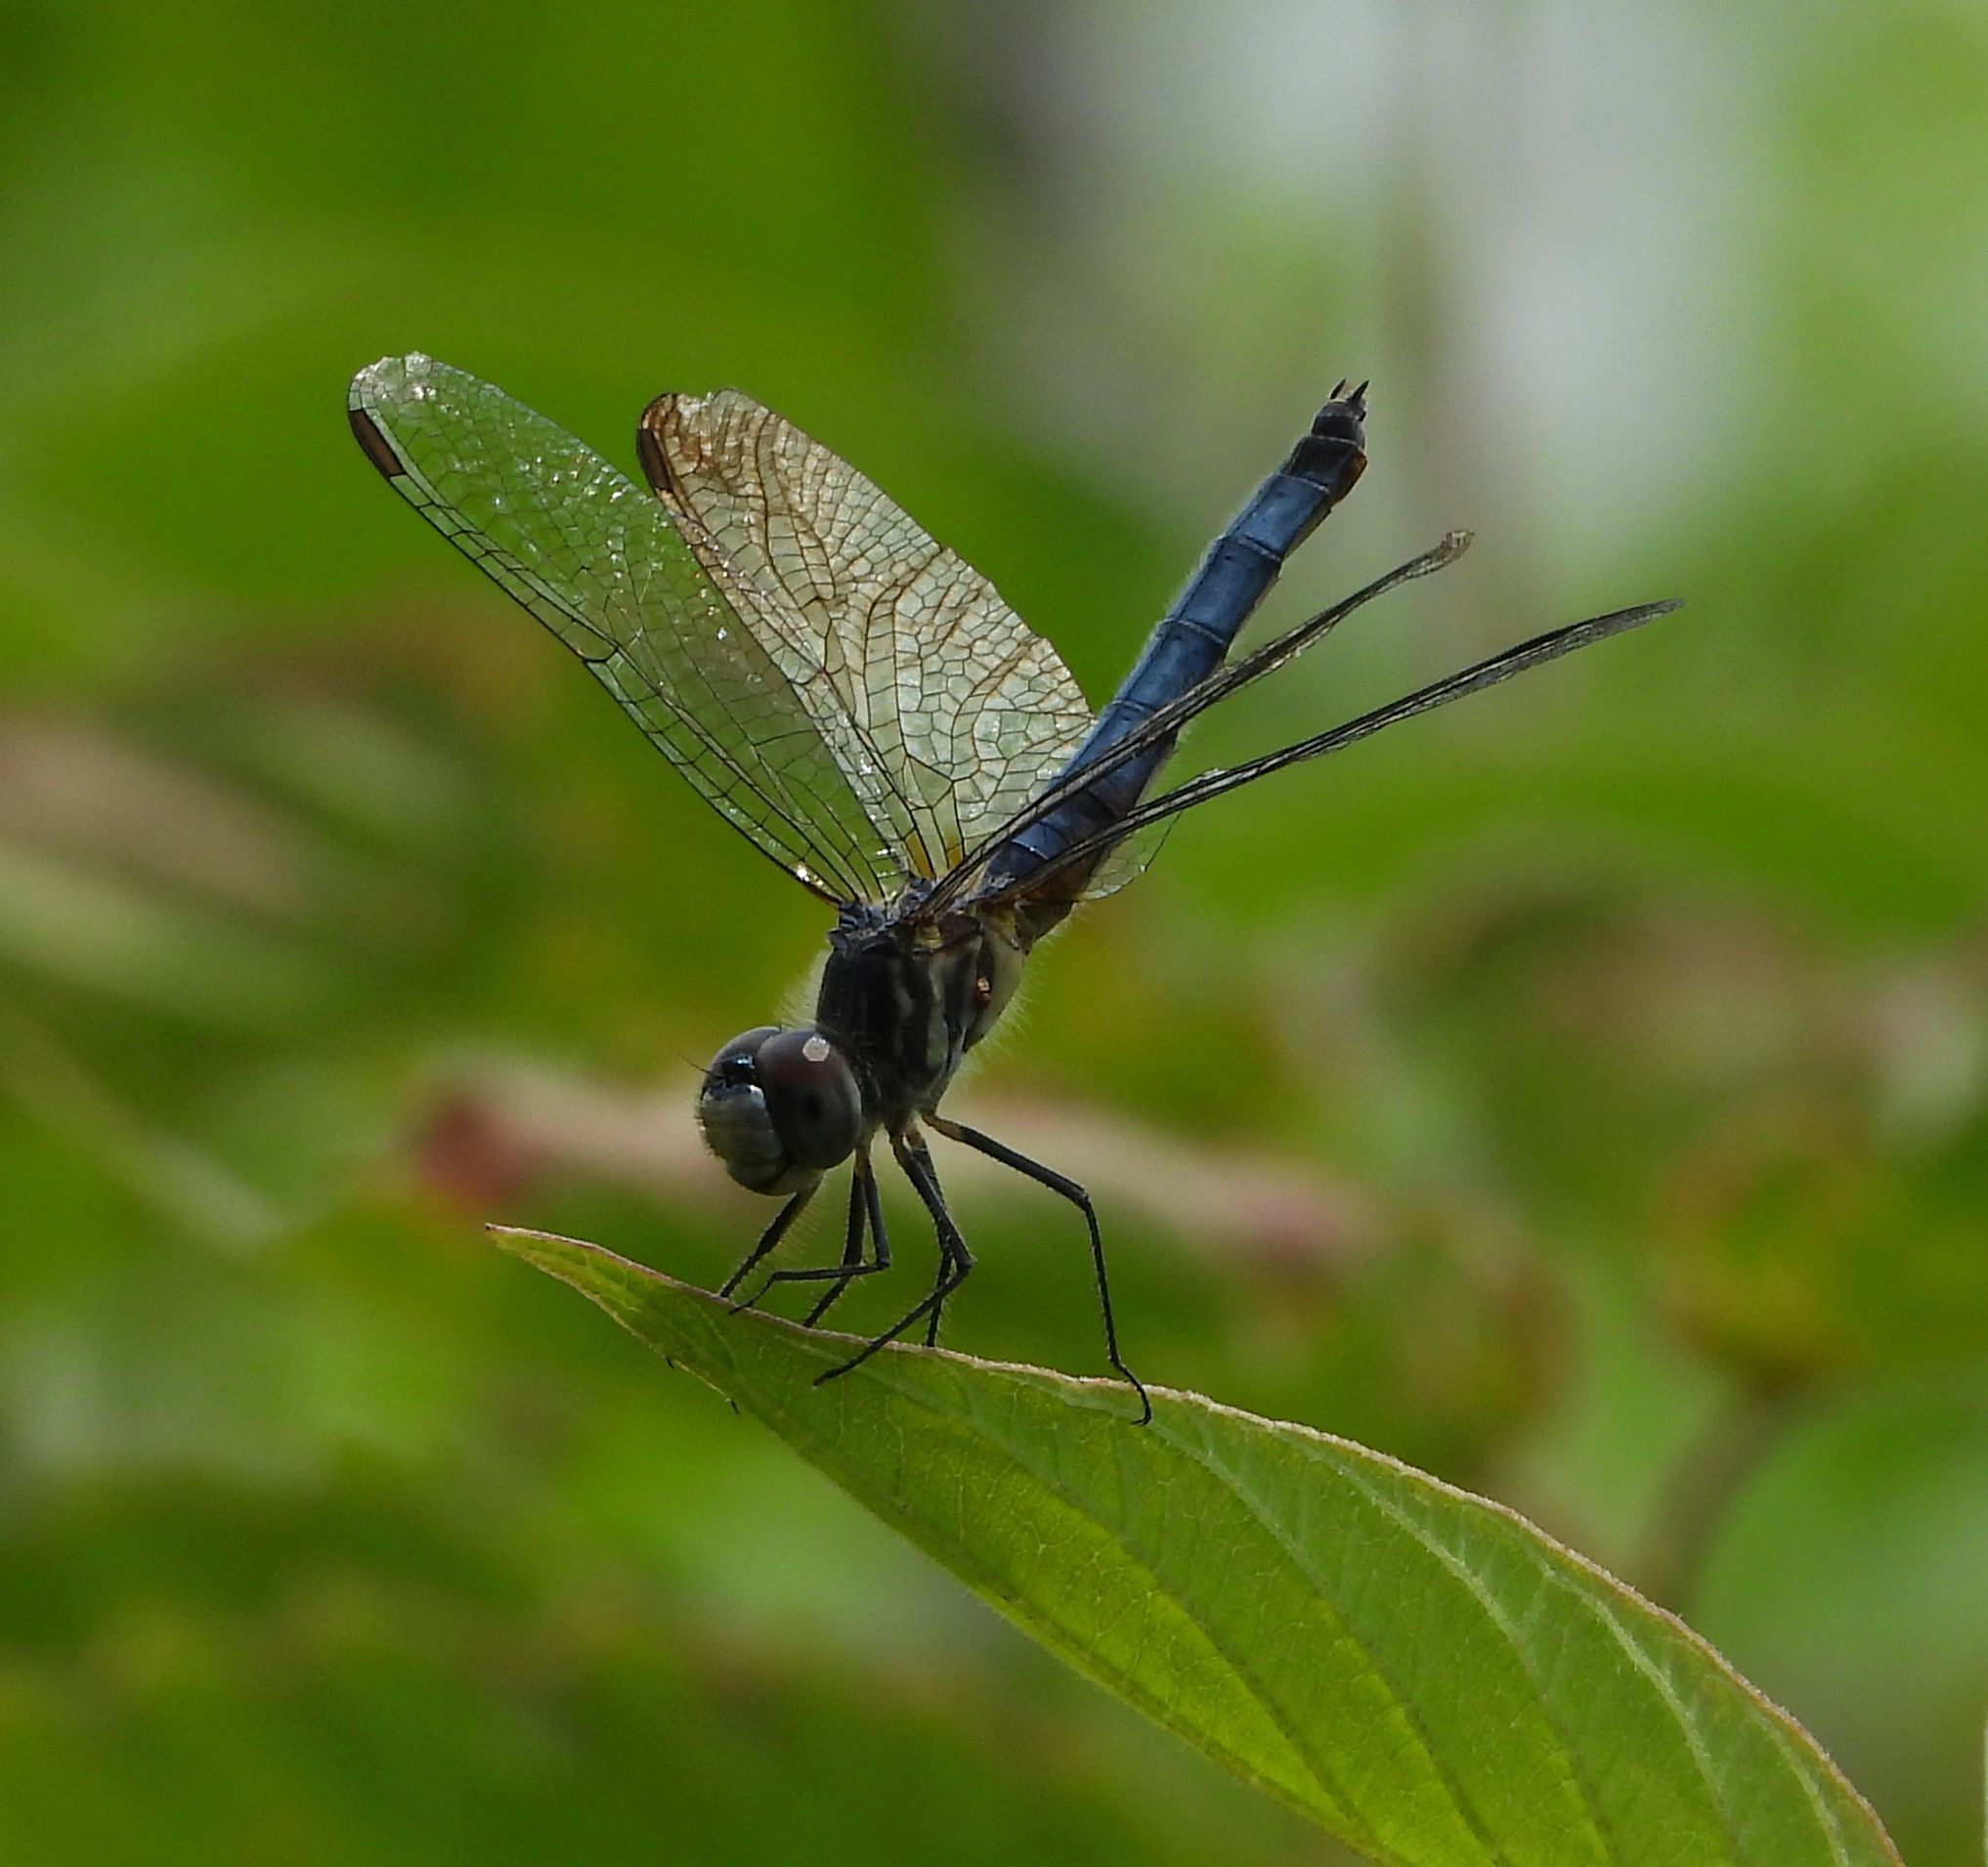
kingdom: Animalia
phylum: Arthropoda
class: Insecta
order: Odonata
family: Libellulidae
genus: Pachydiplax
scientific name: Pachydiplax longipennis
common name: Blue dasher
